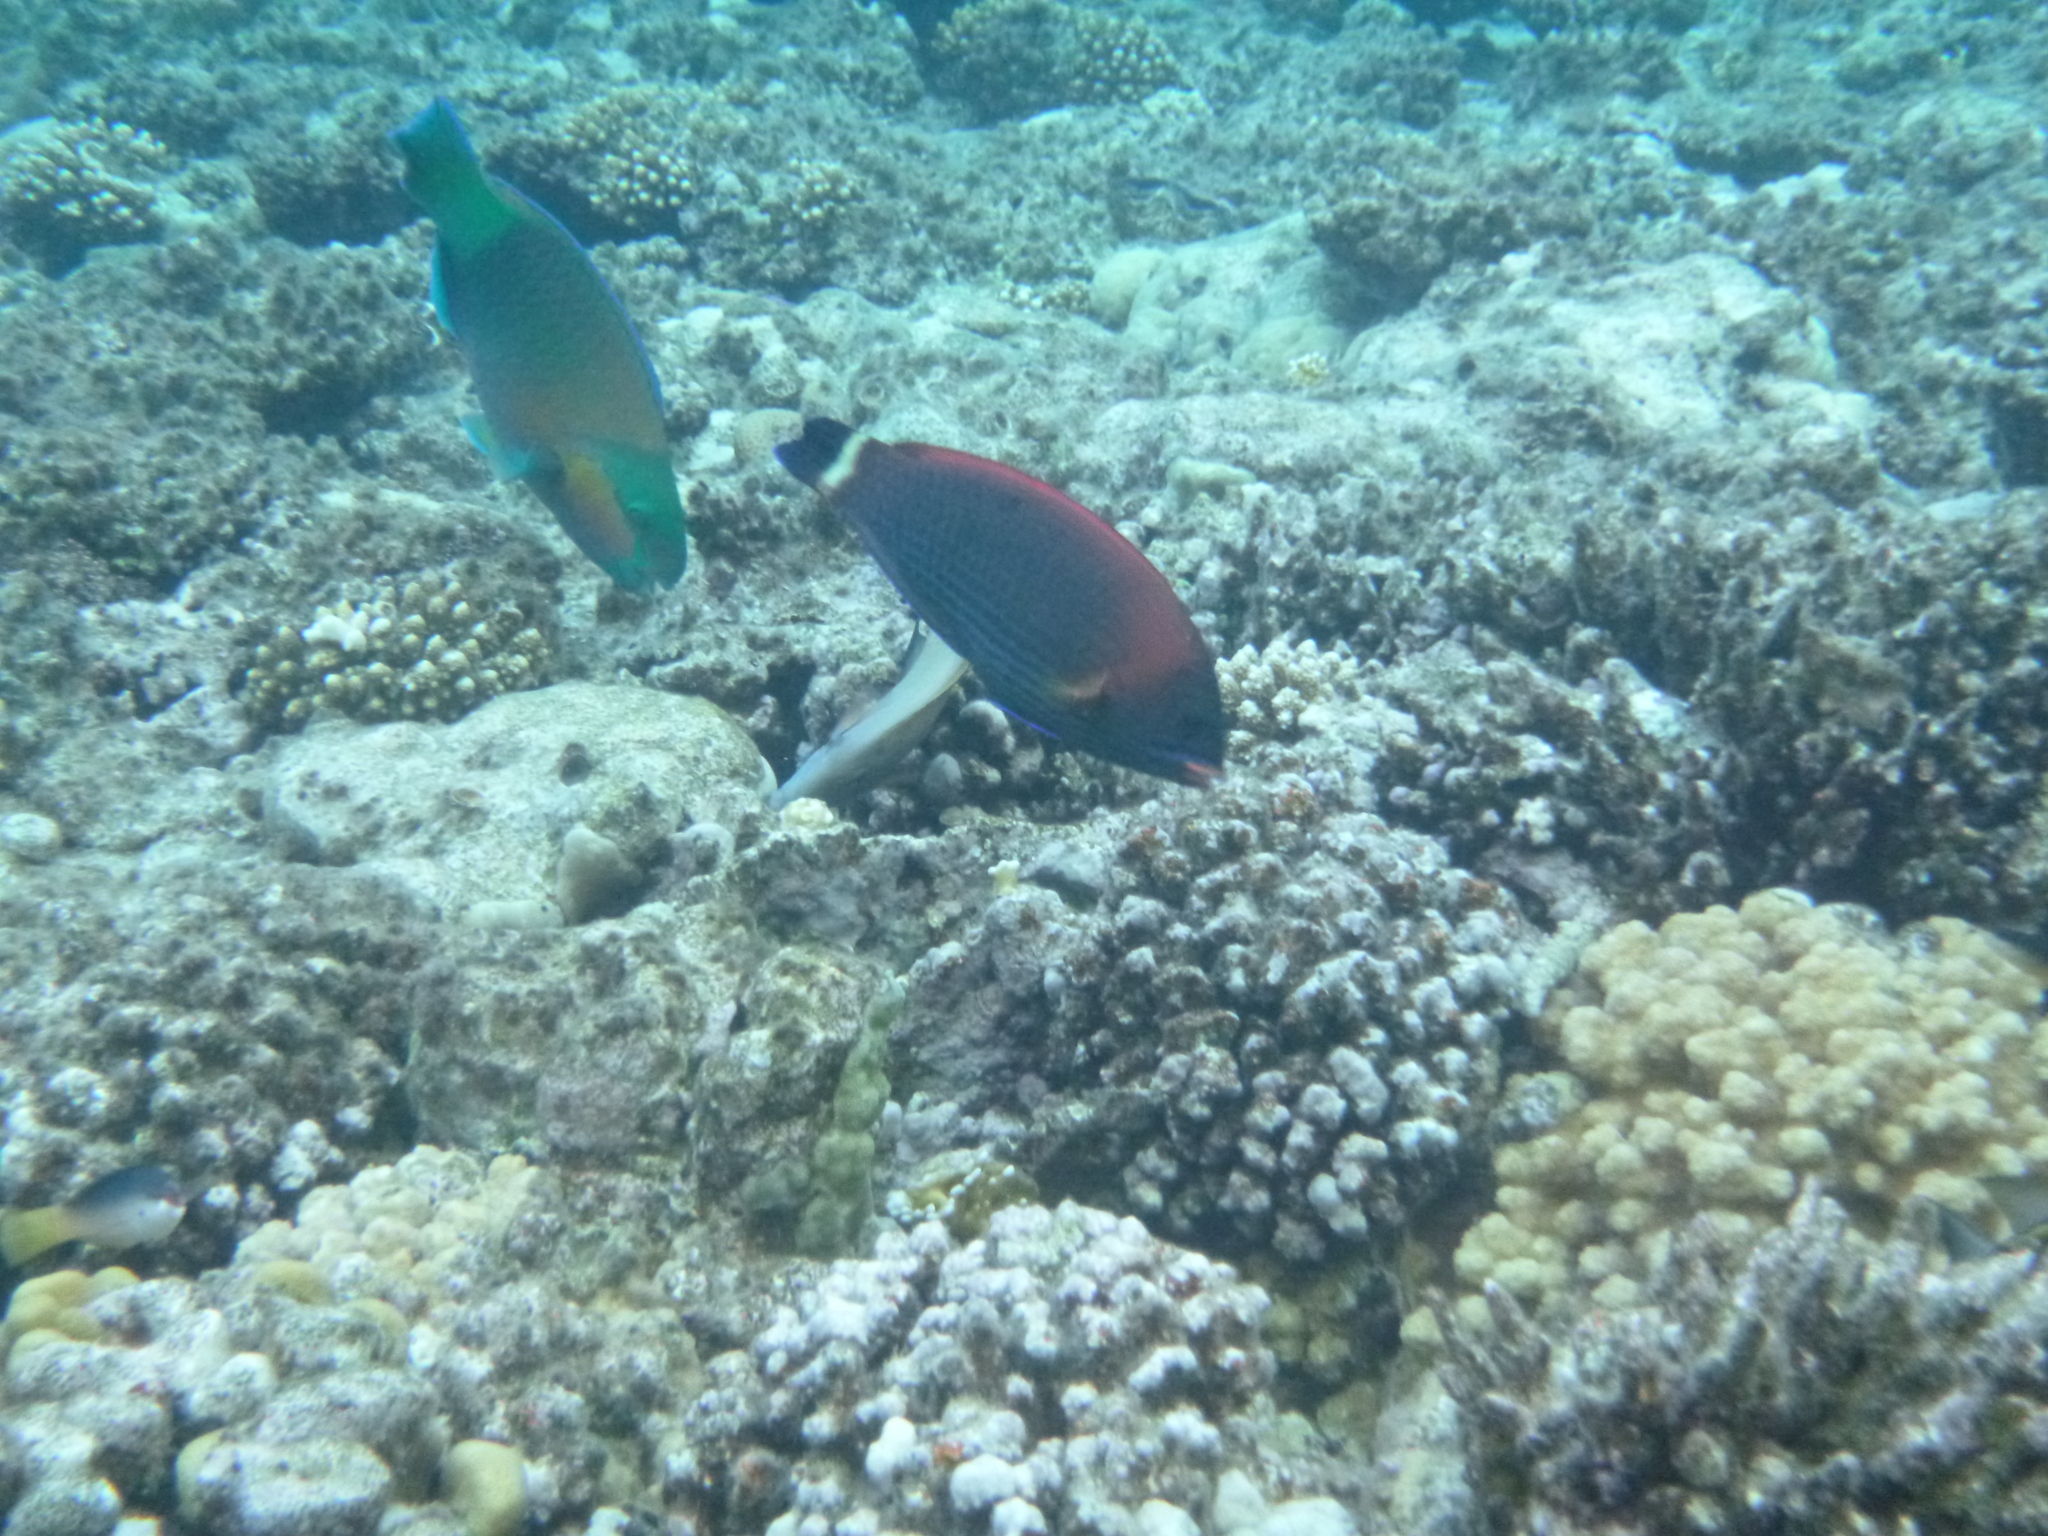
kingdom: Animalia
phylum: Chordata
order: Perciformes
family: Labridae
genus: Pseudodax
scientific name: Pseudodax moluccanus
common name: Chiseltooth wrasse
